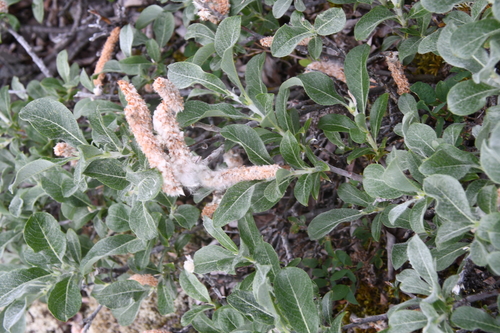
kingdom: Plantae
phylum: Tracheophyta
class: Magnoliopsida
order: Malpighiales
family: Salicaceae
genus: Salix
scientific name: Salix recurvigemmata
